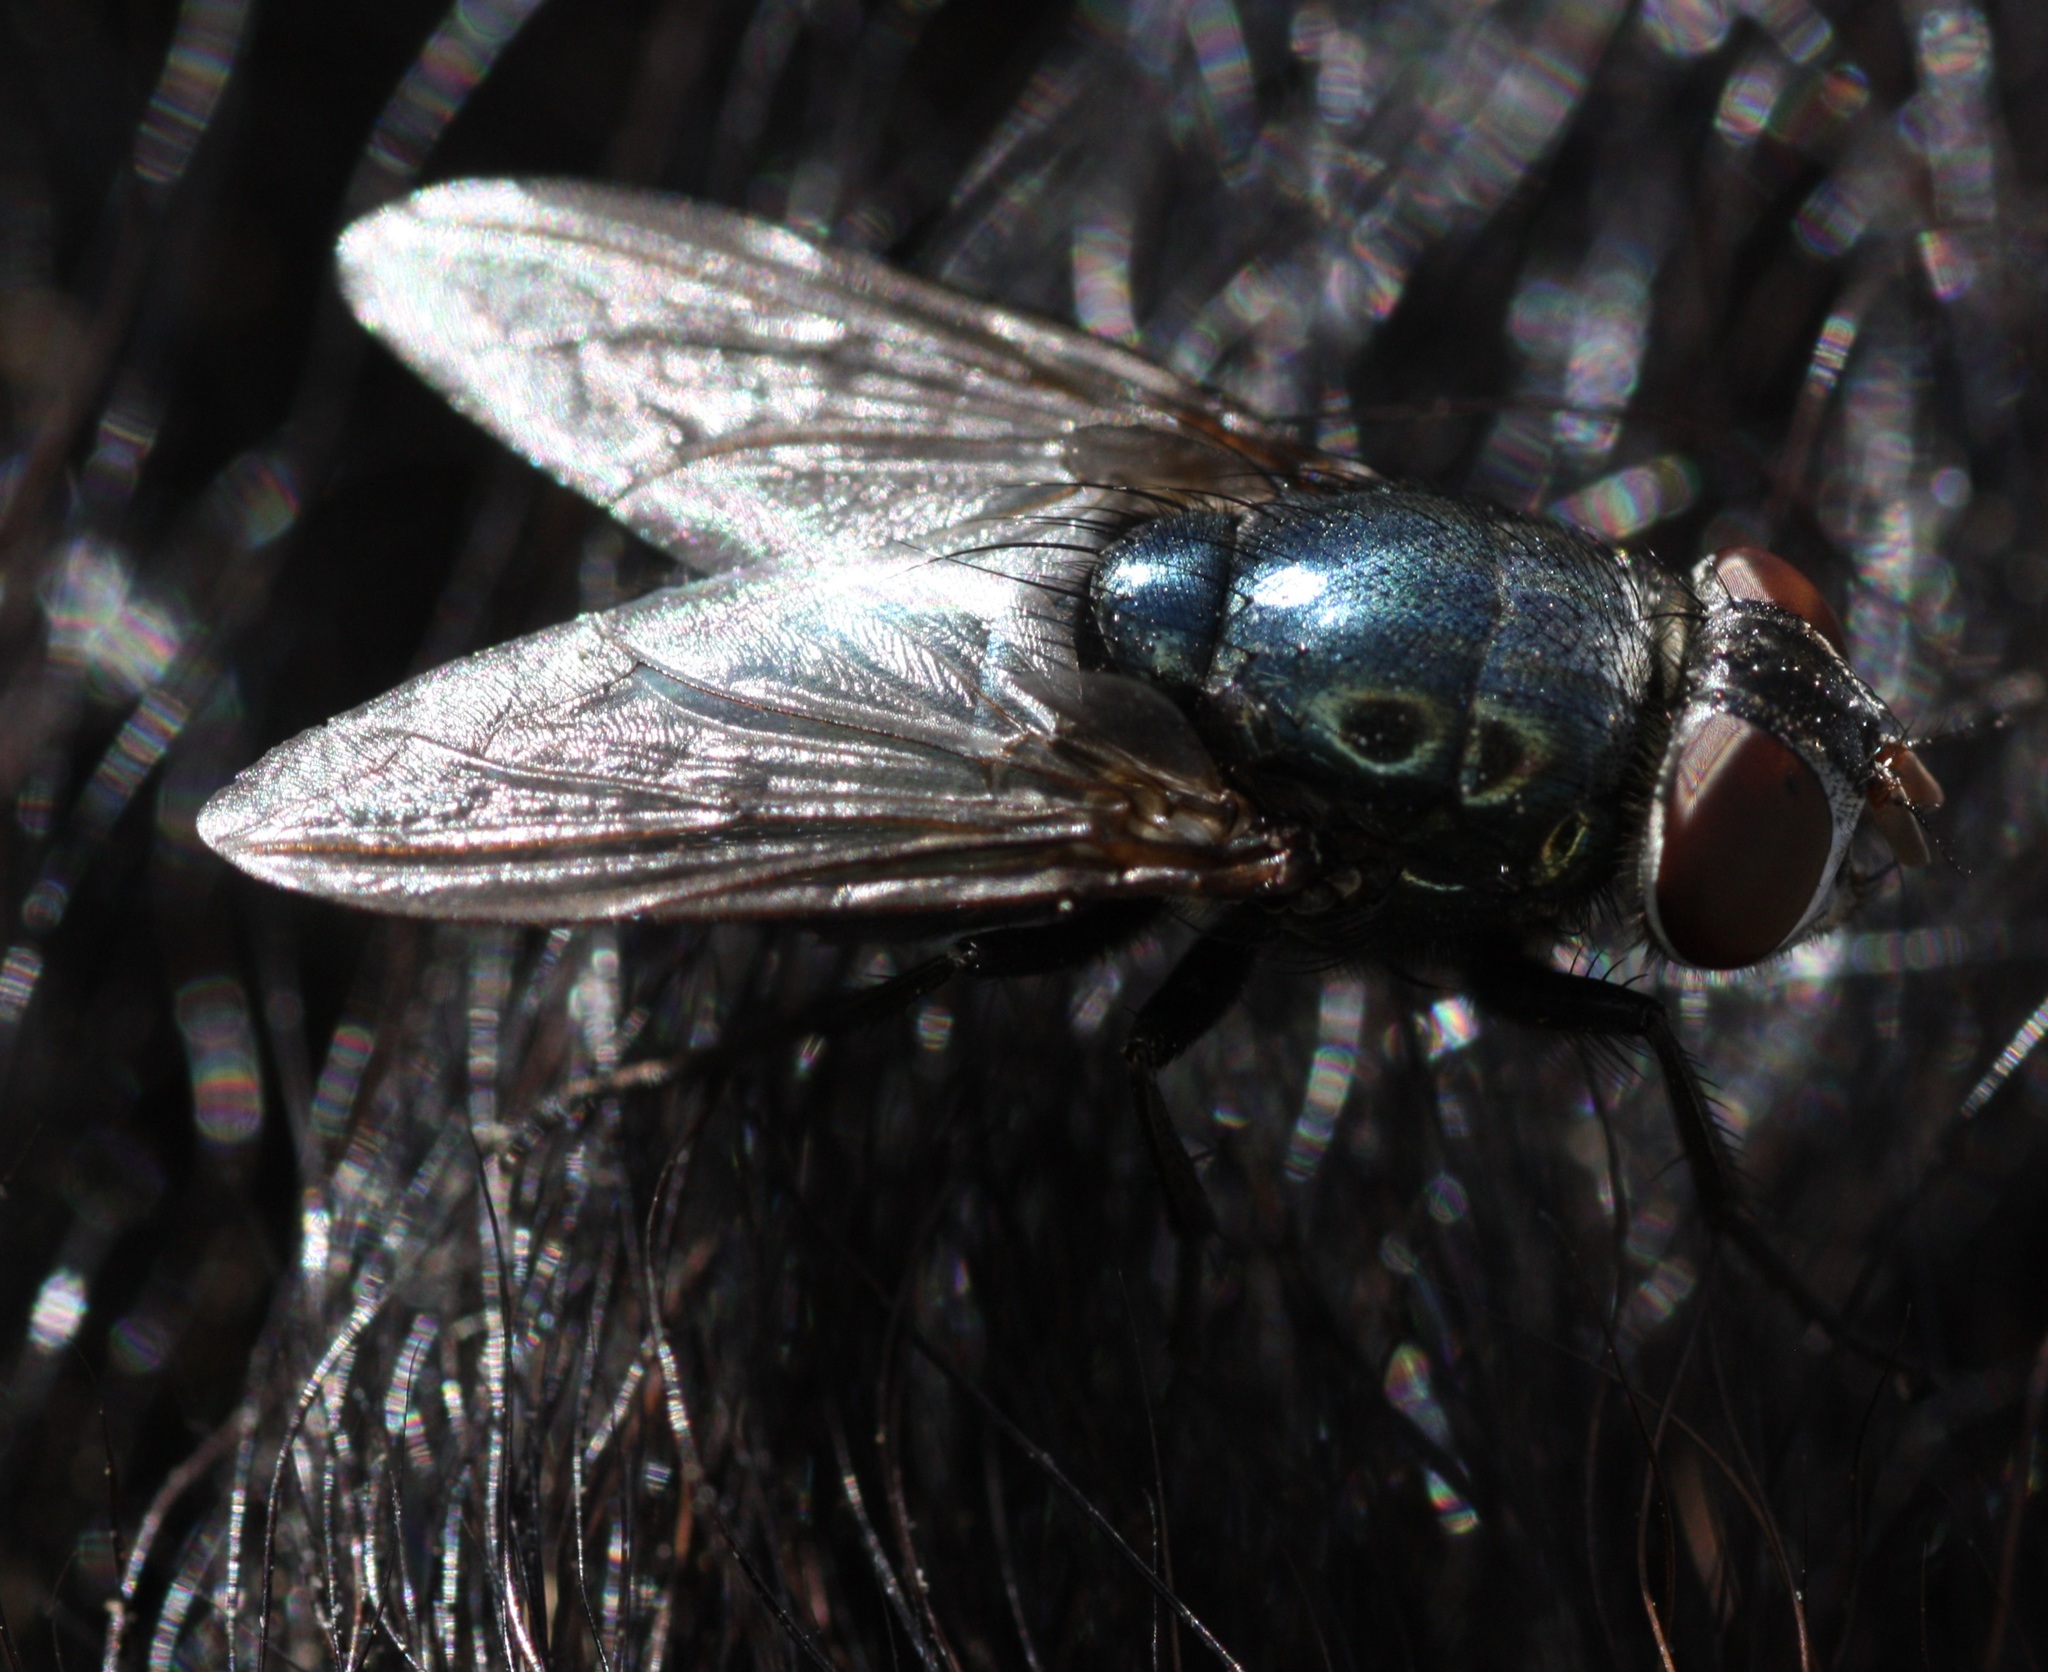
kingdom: Animalia
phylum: Arthropoda
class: Insecta
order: Diptera
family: Calliphoridae
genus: Phormia
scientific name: Phormia regina
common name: Black blow fly
